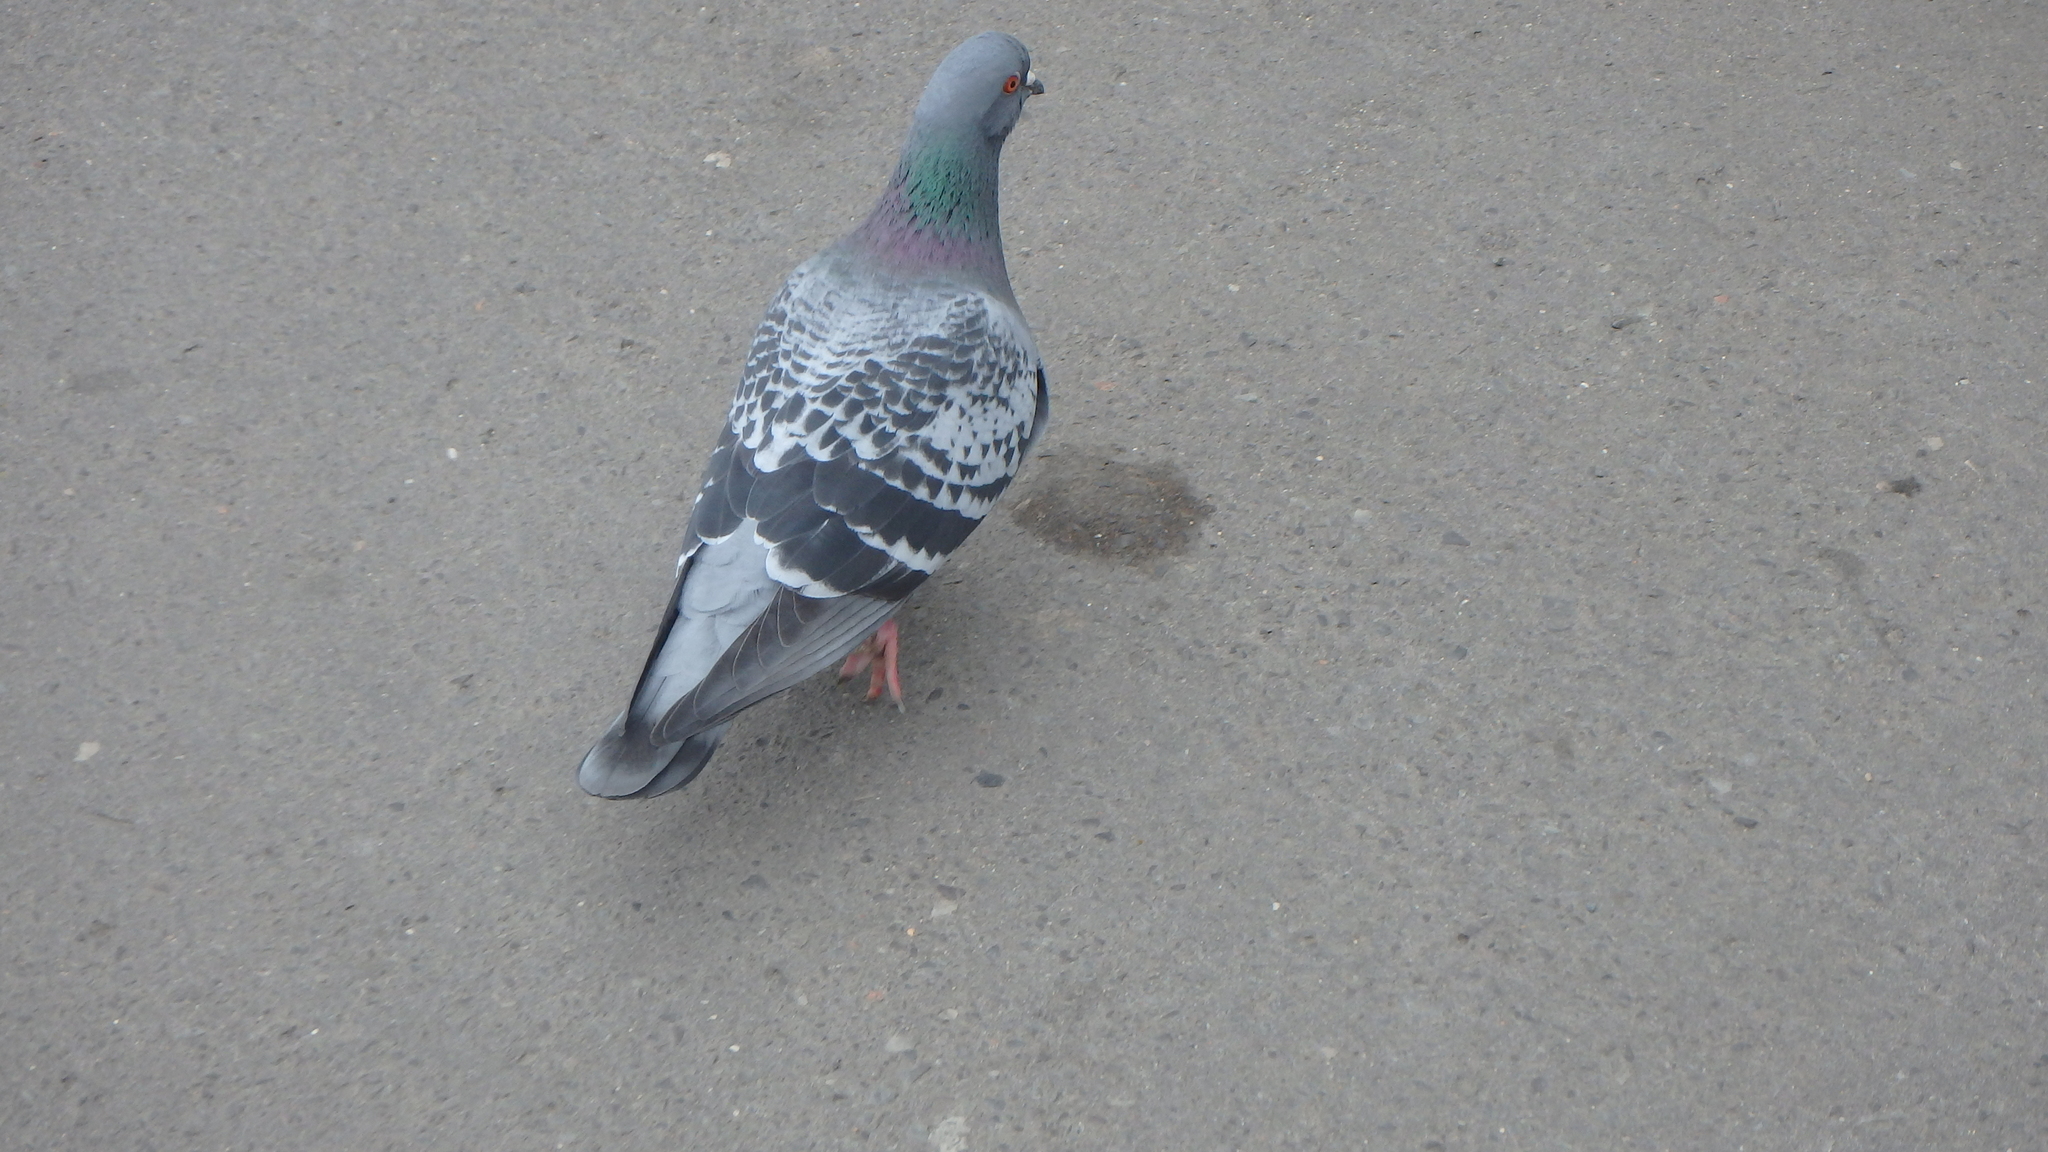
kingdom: Animalia
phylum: Chordata
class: Aves
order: Columbiformes
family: Columbidae
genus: Columba
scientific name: Columba livia
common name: Rock pigeon
